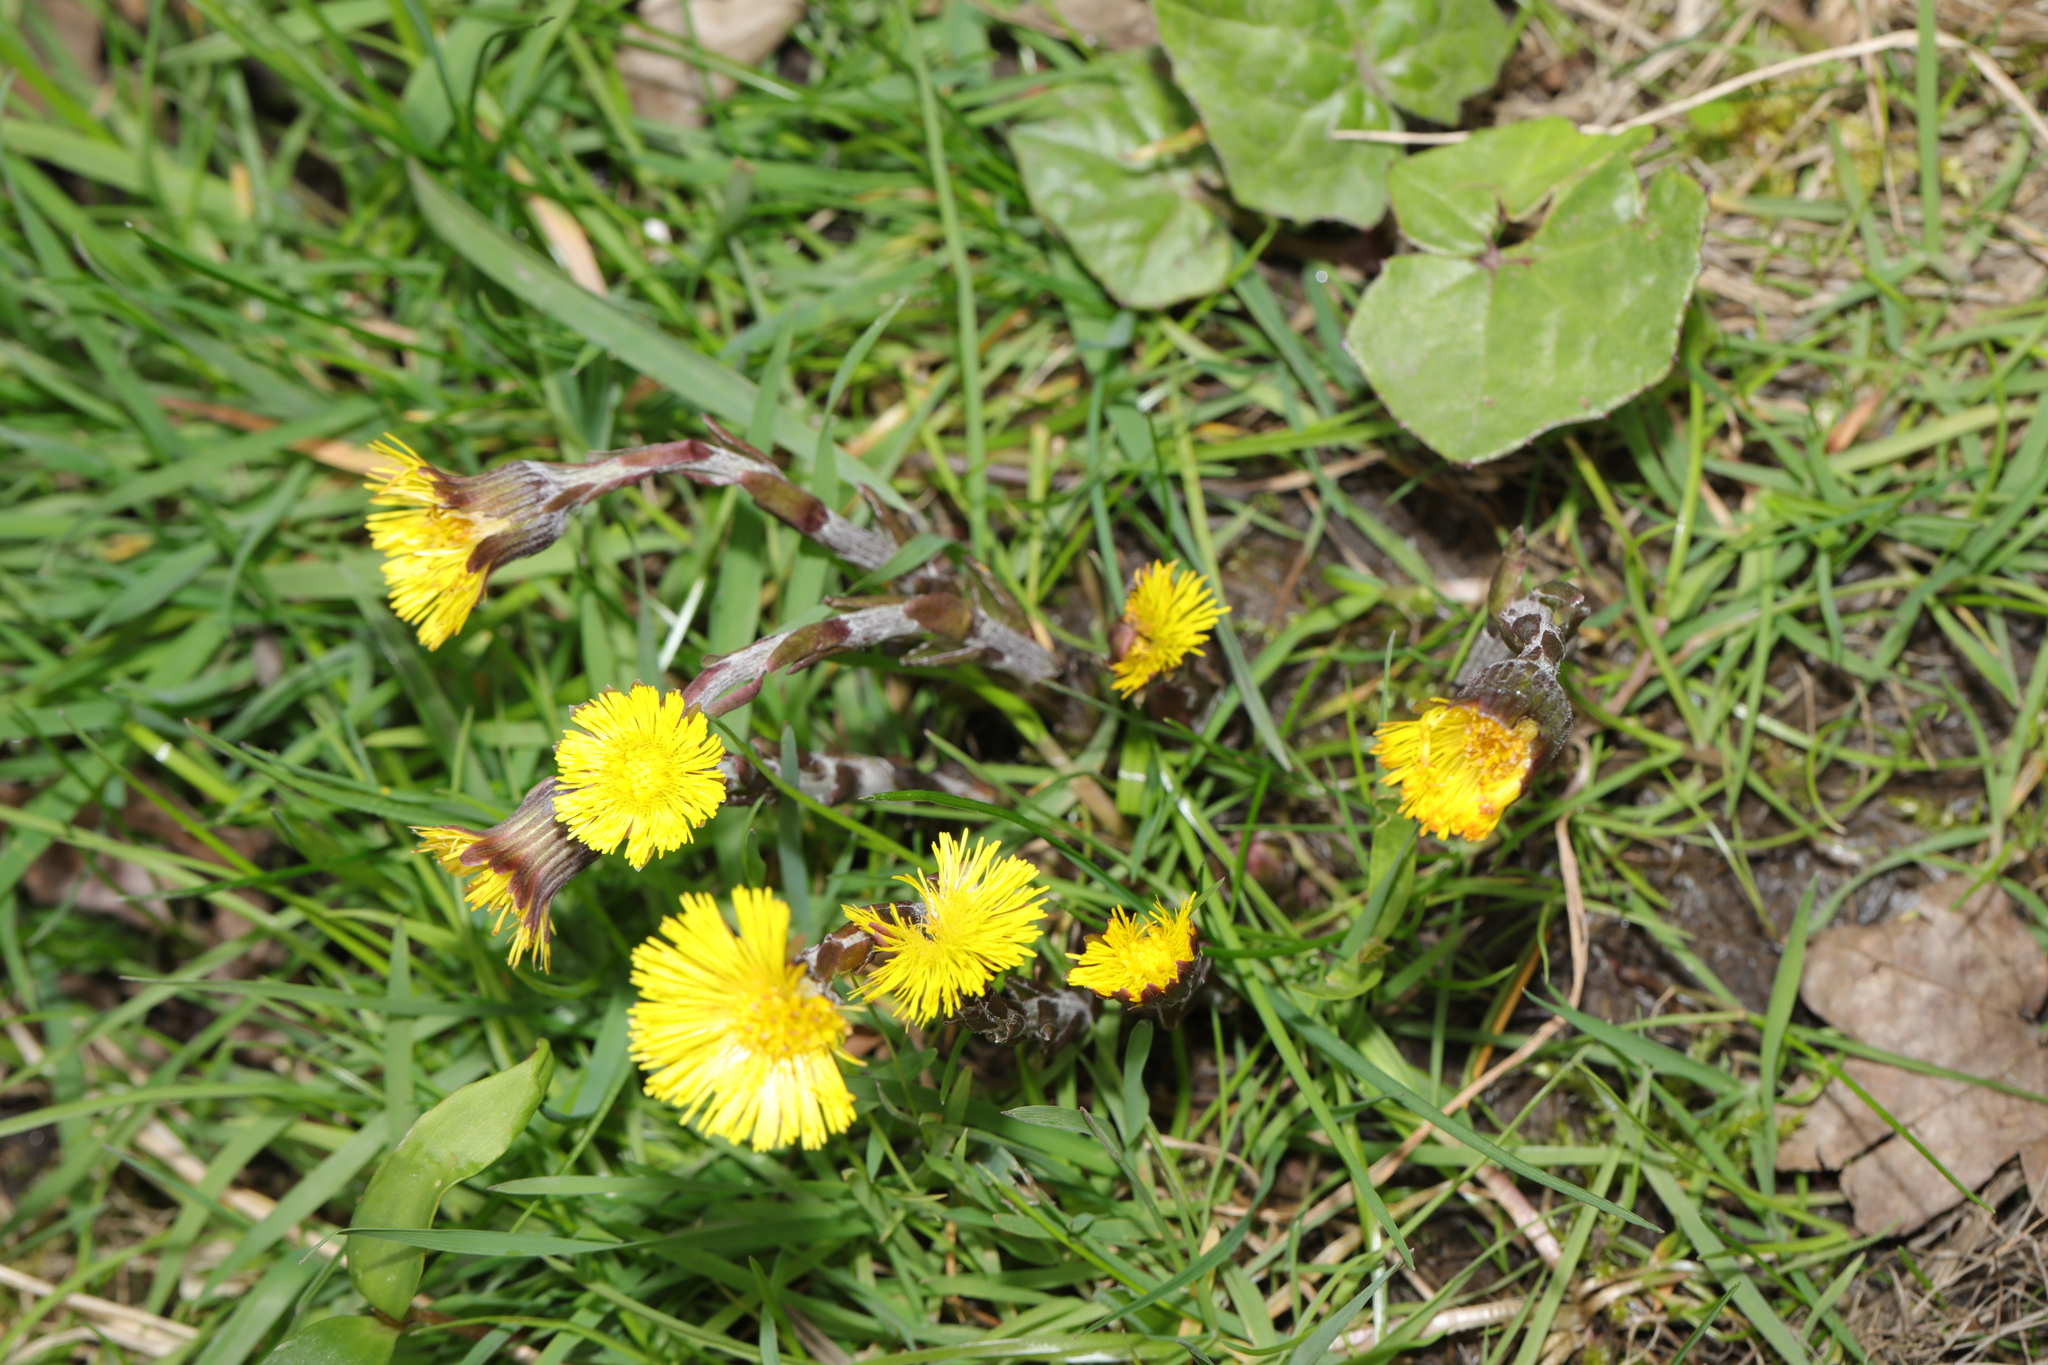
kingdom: Plantae
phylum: Tracheophyta
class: Magnoliopsida
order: Asterales
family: Asteraceae
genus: Tussilago
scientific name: Tussilago farfara
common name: Coltsfoot
